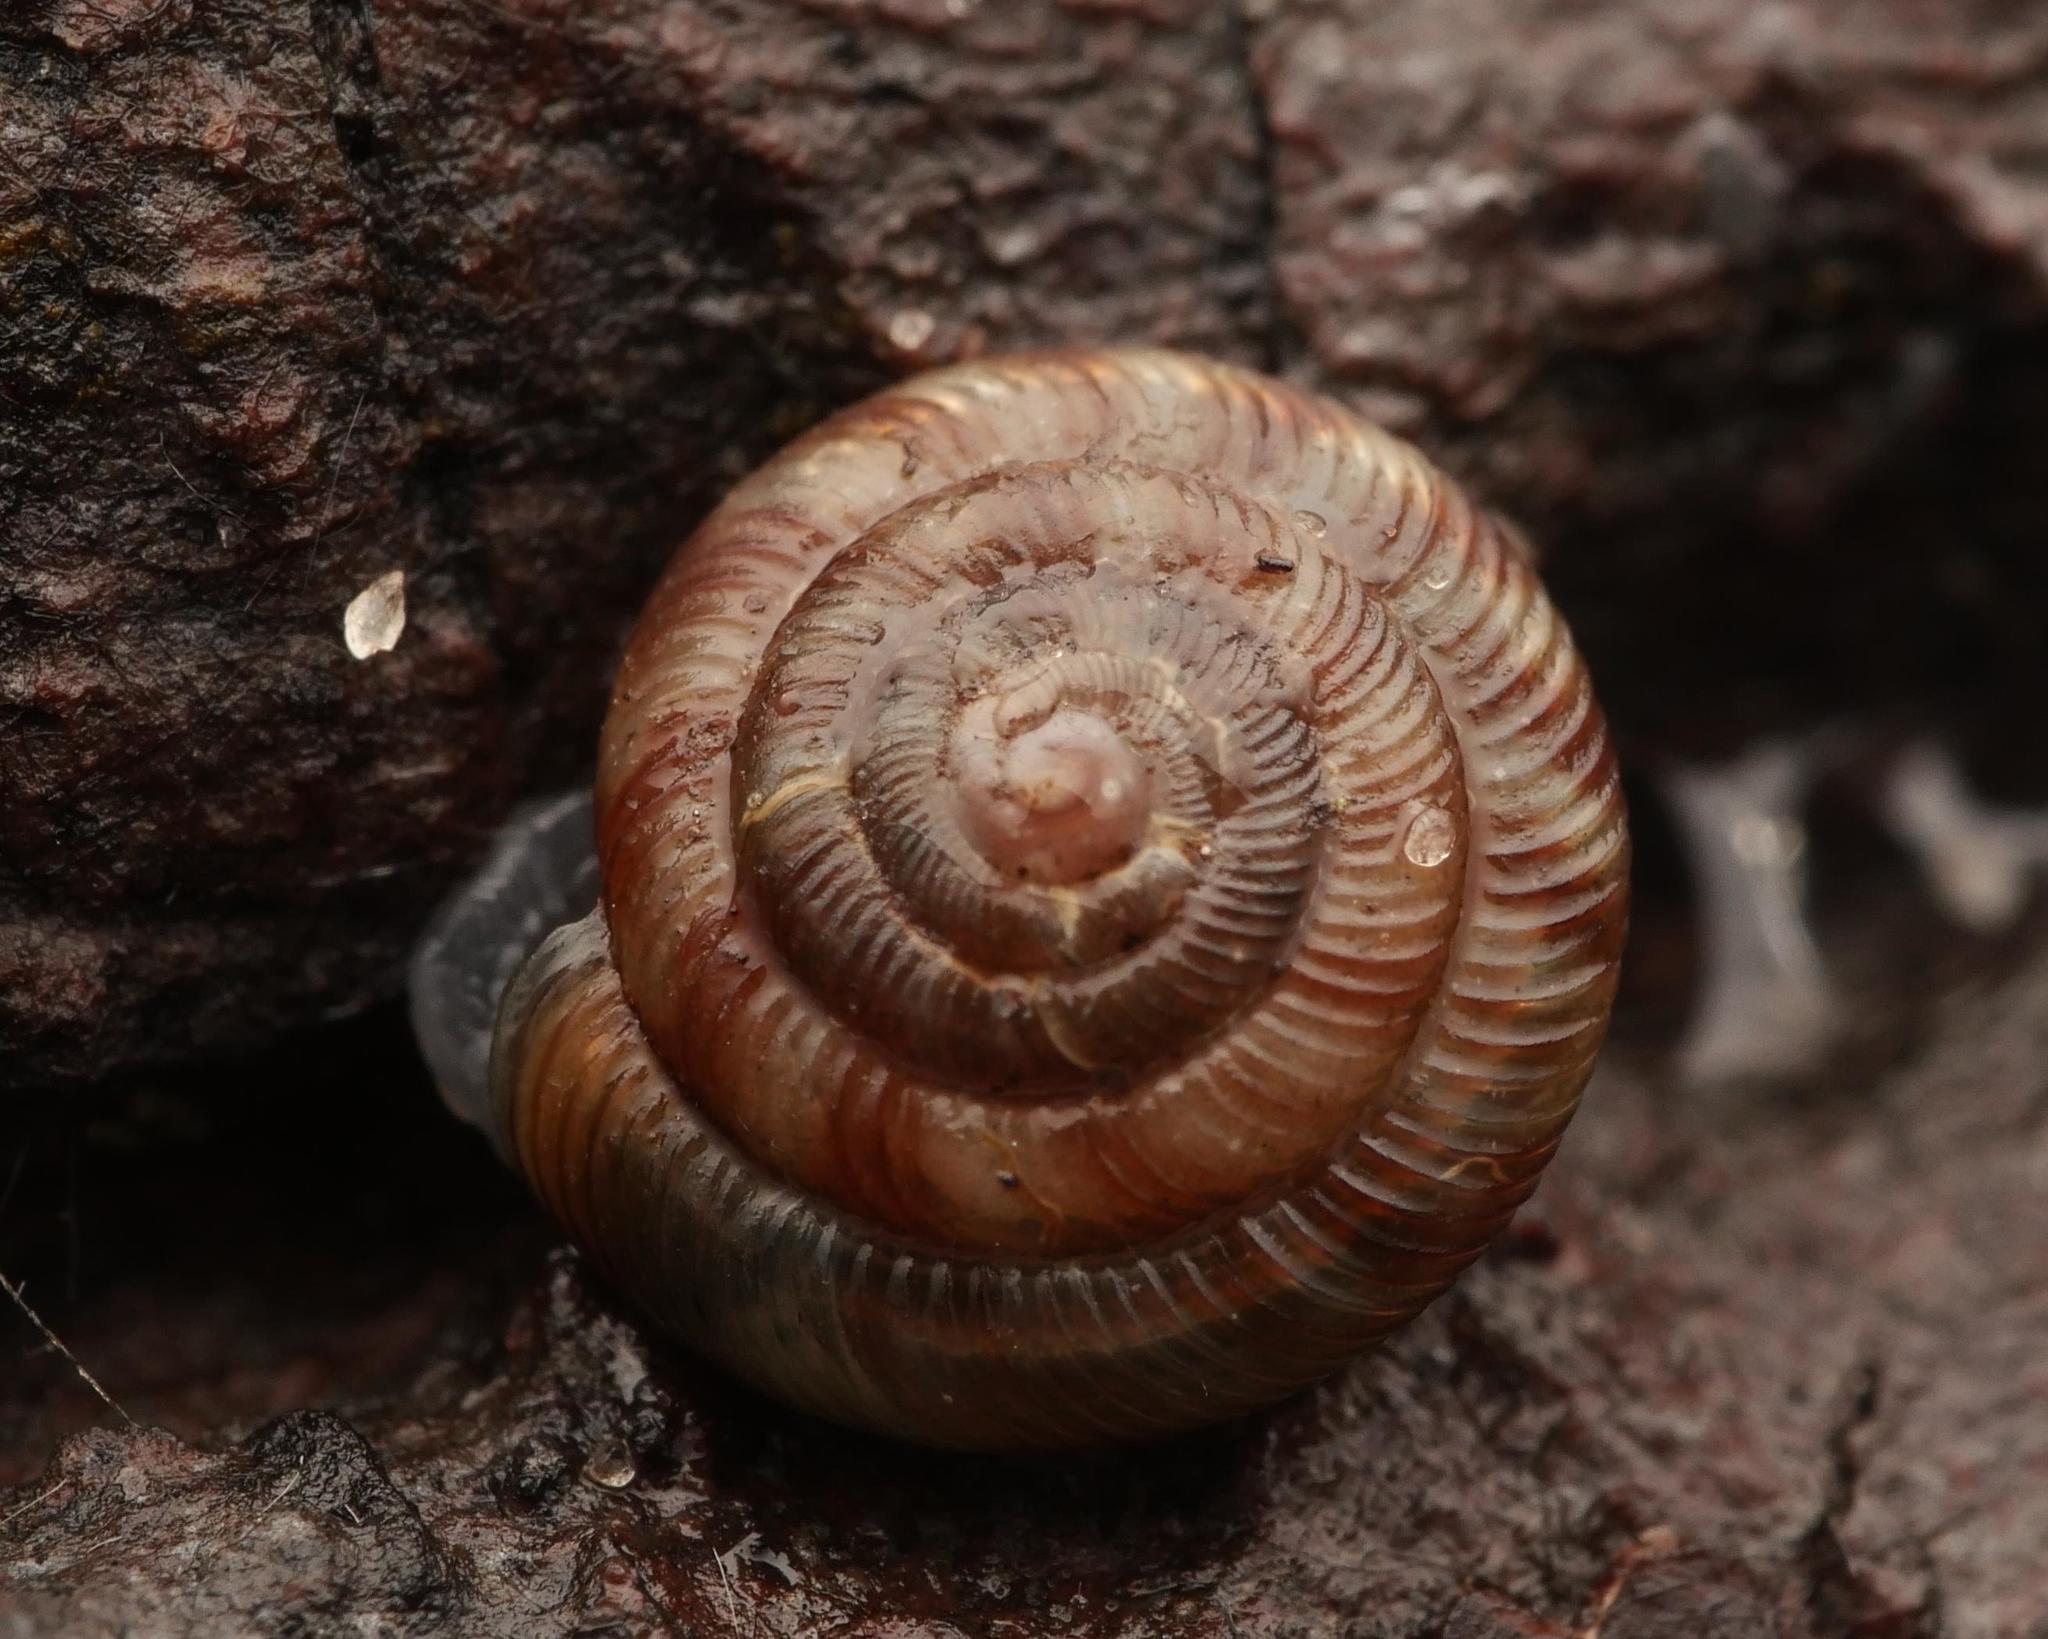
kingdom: Animalia
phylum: Mollusca
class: Gastropoda
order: Stylommatophora
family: Discidae
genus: Discus
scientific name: Discus rotundatus
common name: Rounded snail
